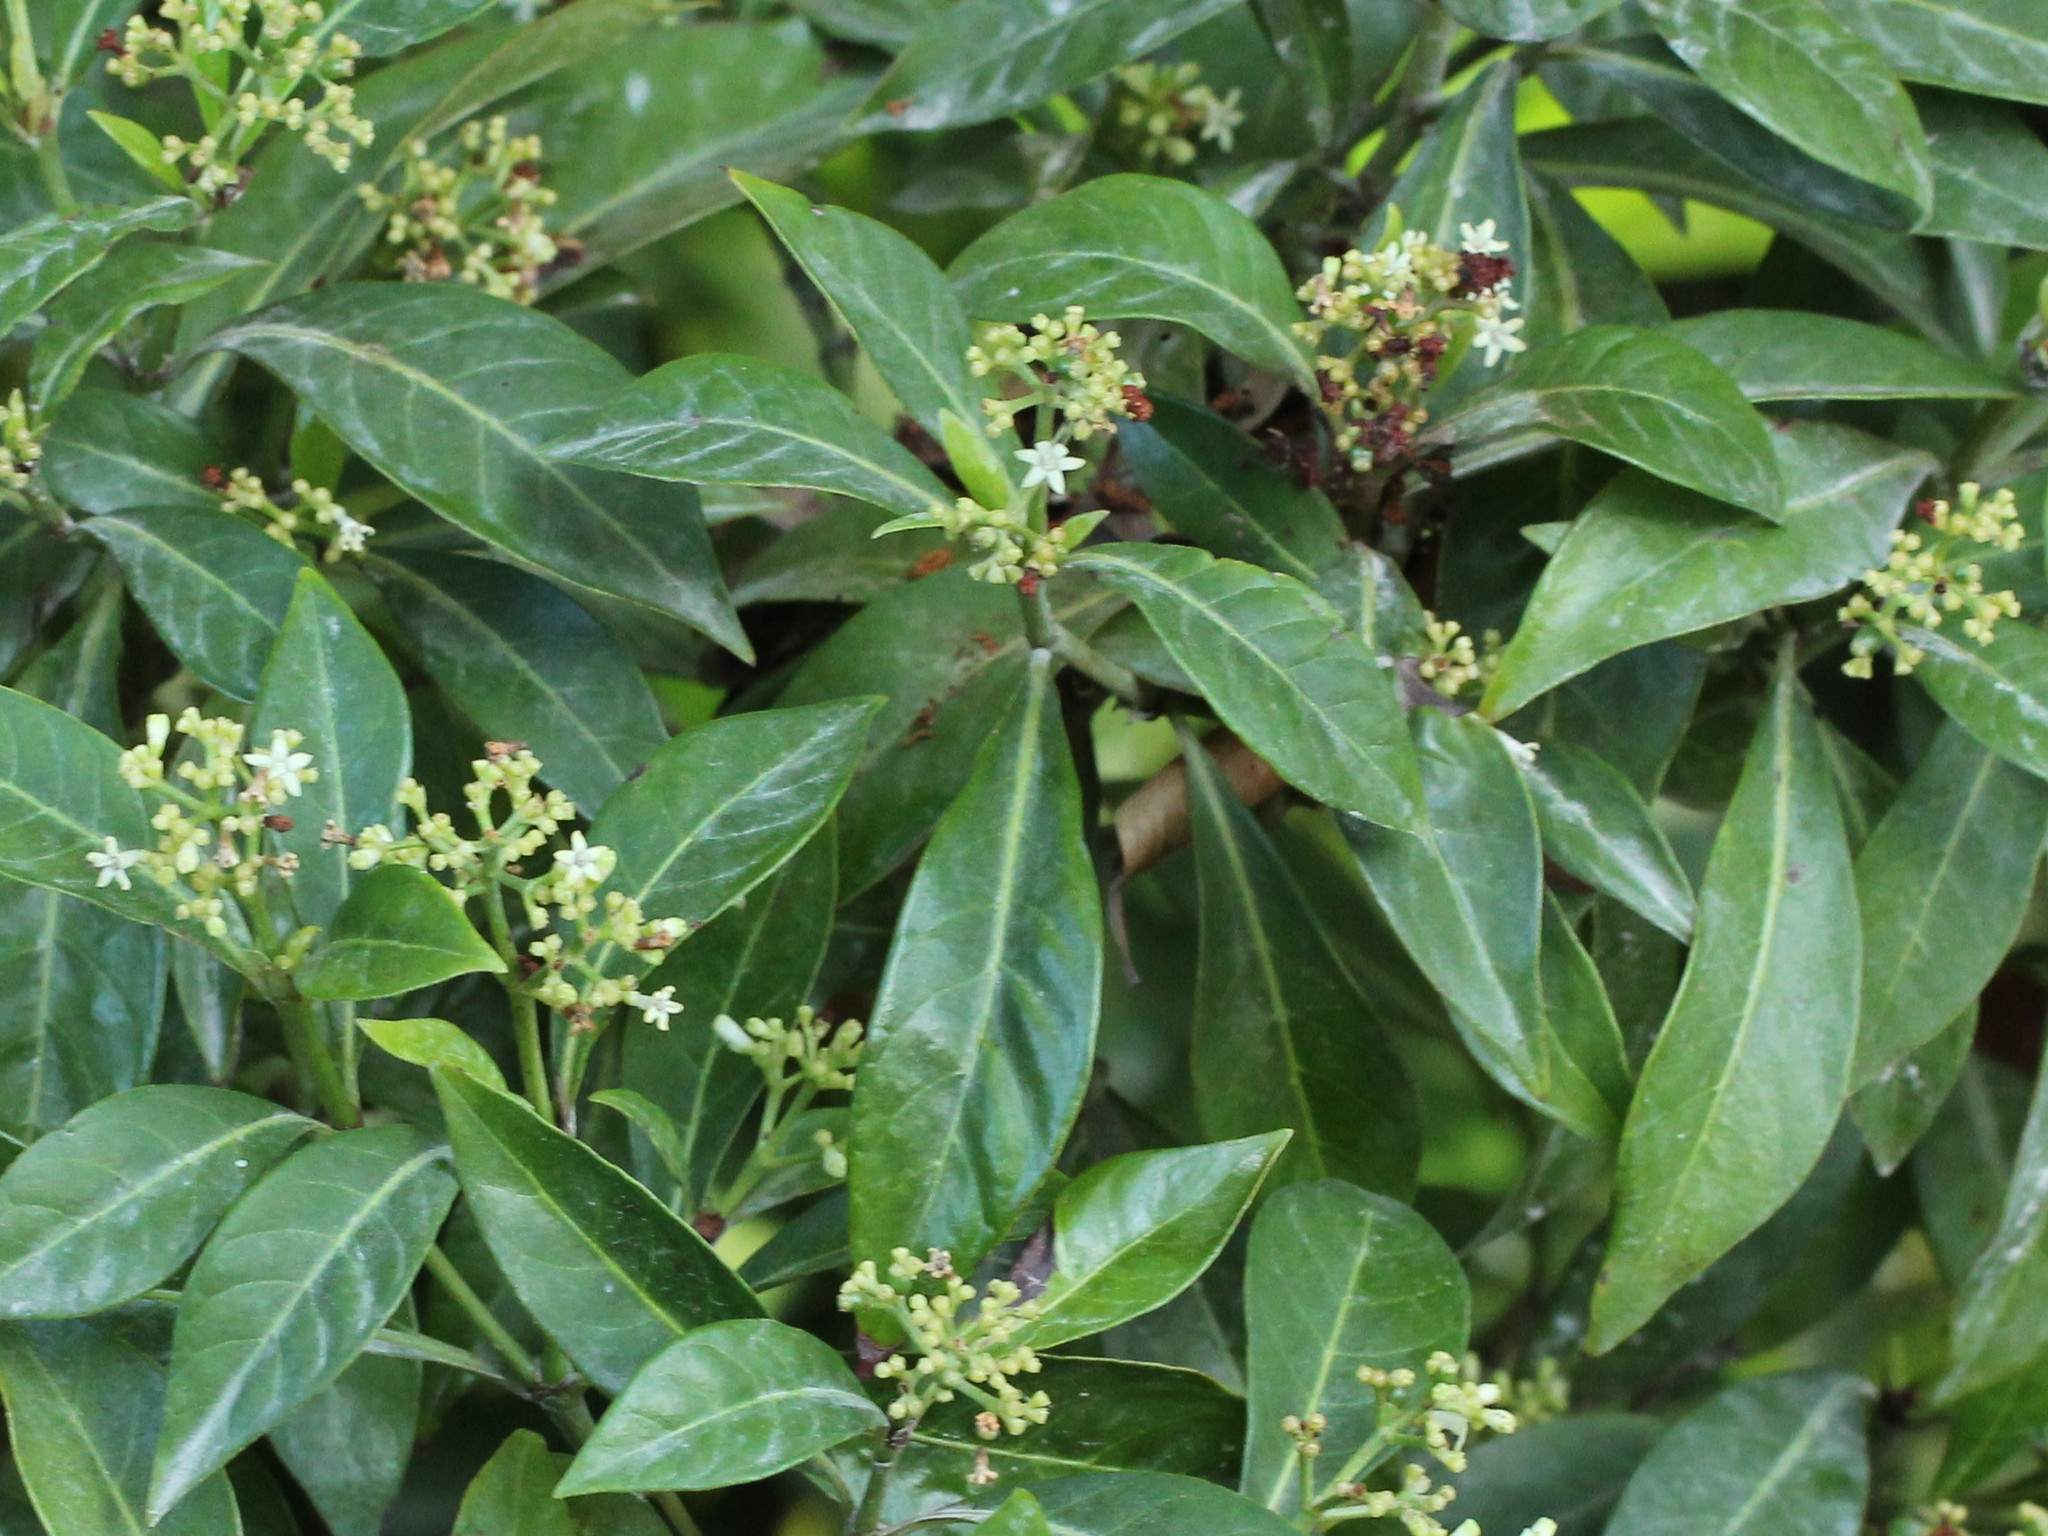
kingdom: Plantae
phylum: Tracheophyta
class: Magnoliopsida
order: Gentianales
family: Rubiaceae
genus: Psychotria
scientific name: Psychotria ligustrifolia
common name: Bahama wild coffee
